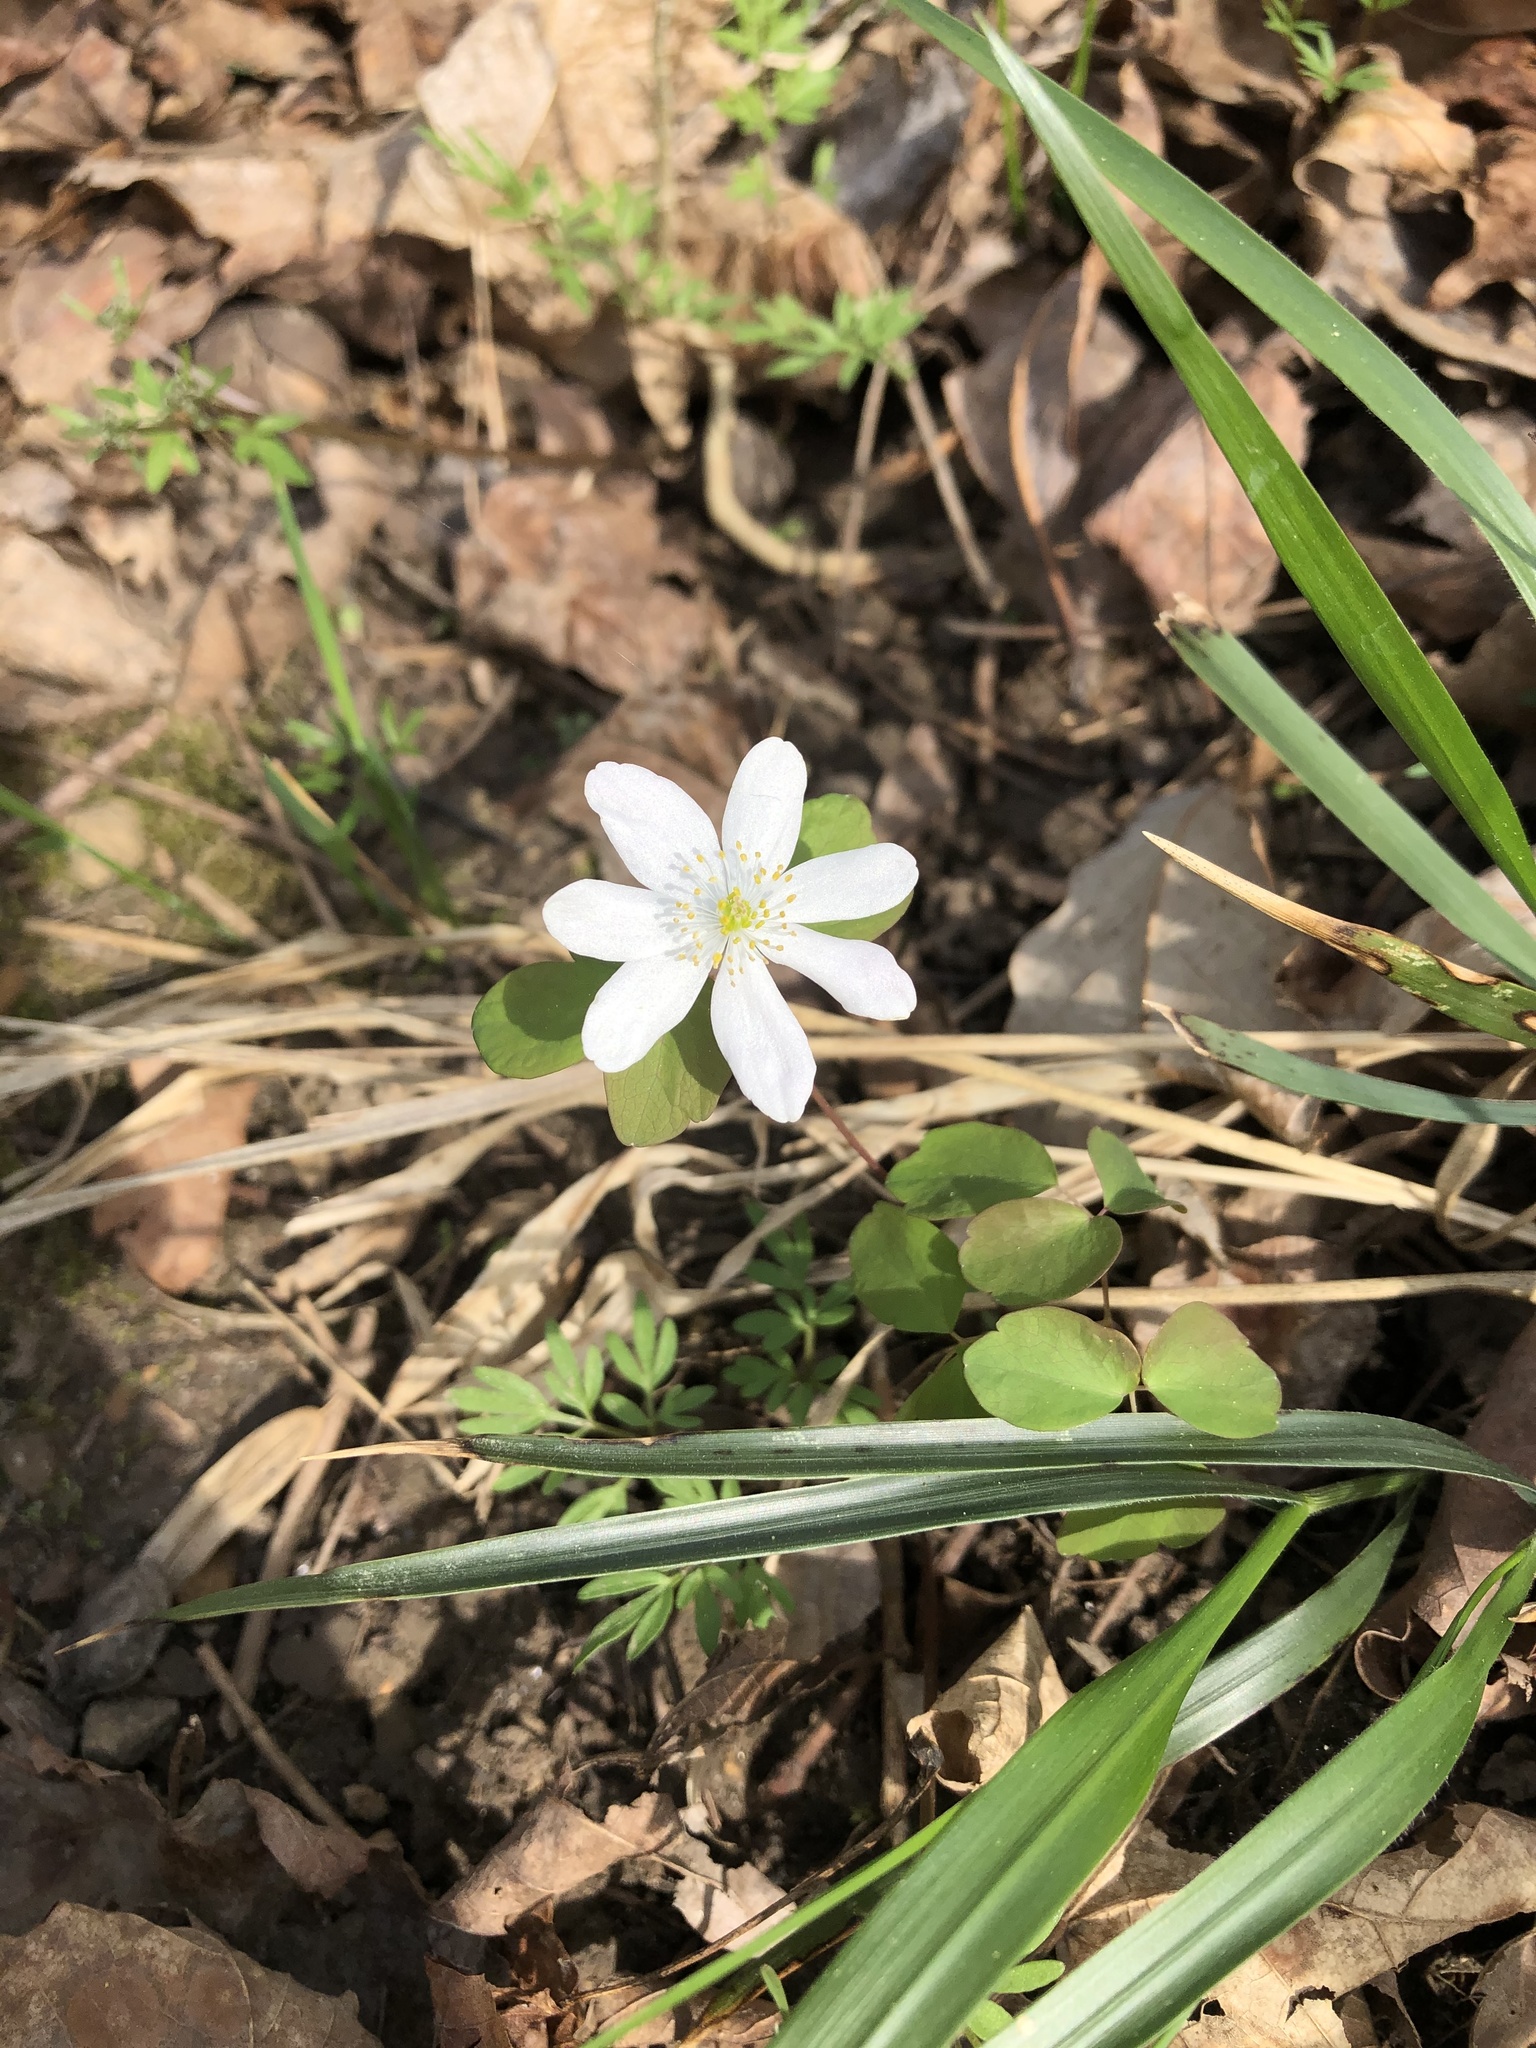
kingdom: Plantae
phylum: Tracheophyta
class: Magnoliopsida
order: Ranunculales
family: Ranunculaceae
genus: Thalictrum
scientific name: Thalictrum thalictroides
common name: Rue-anemone
